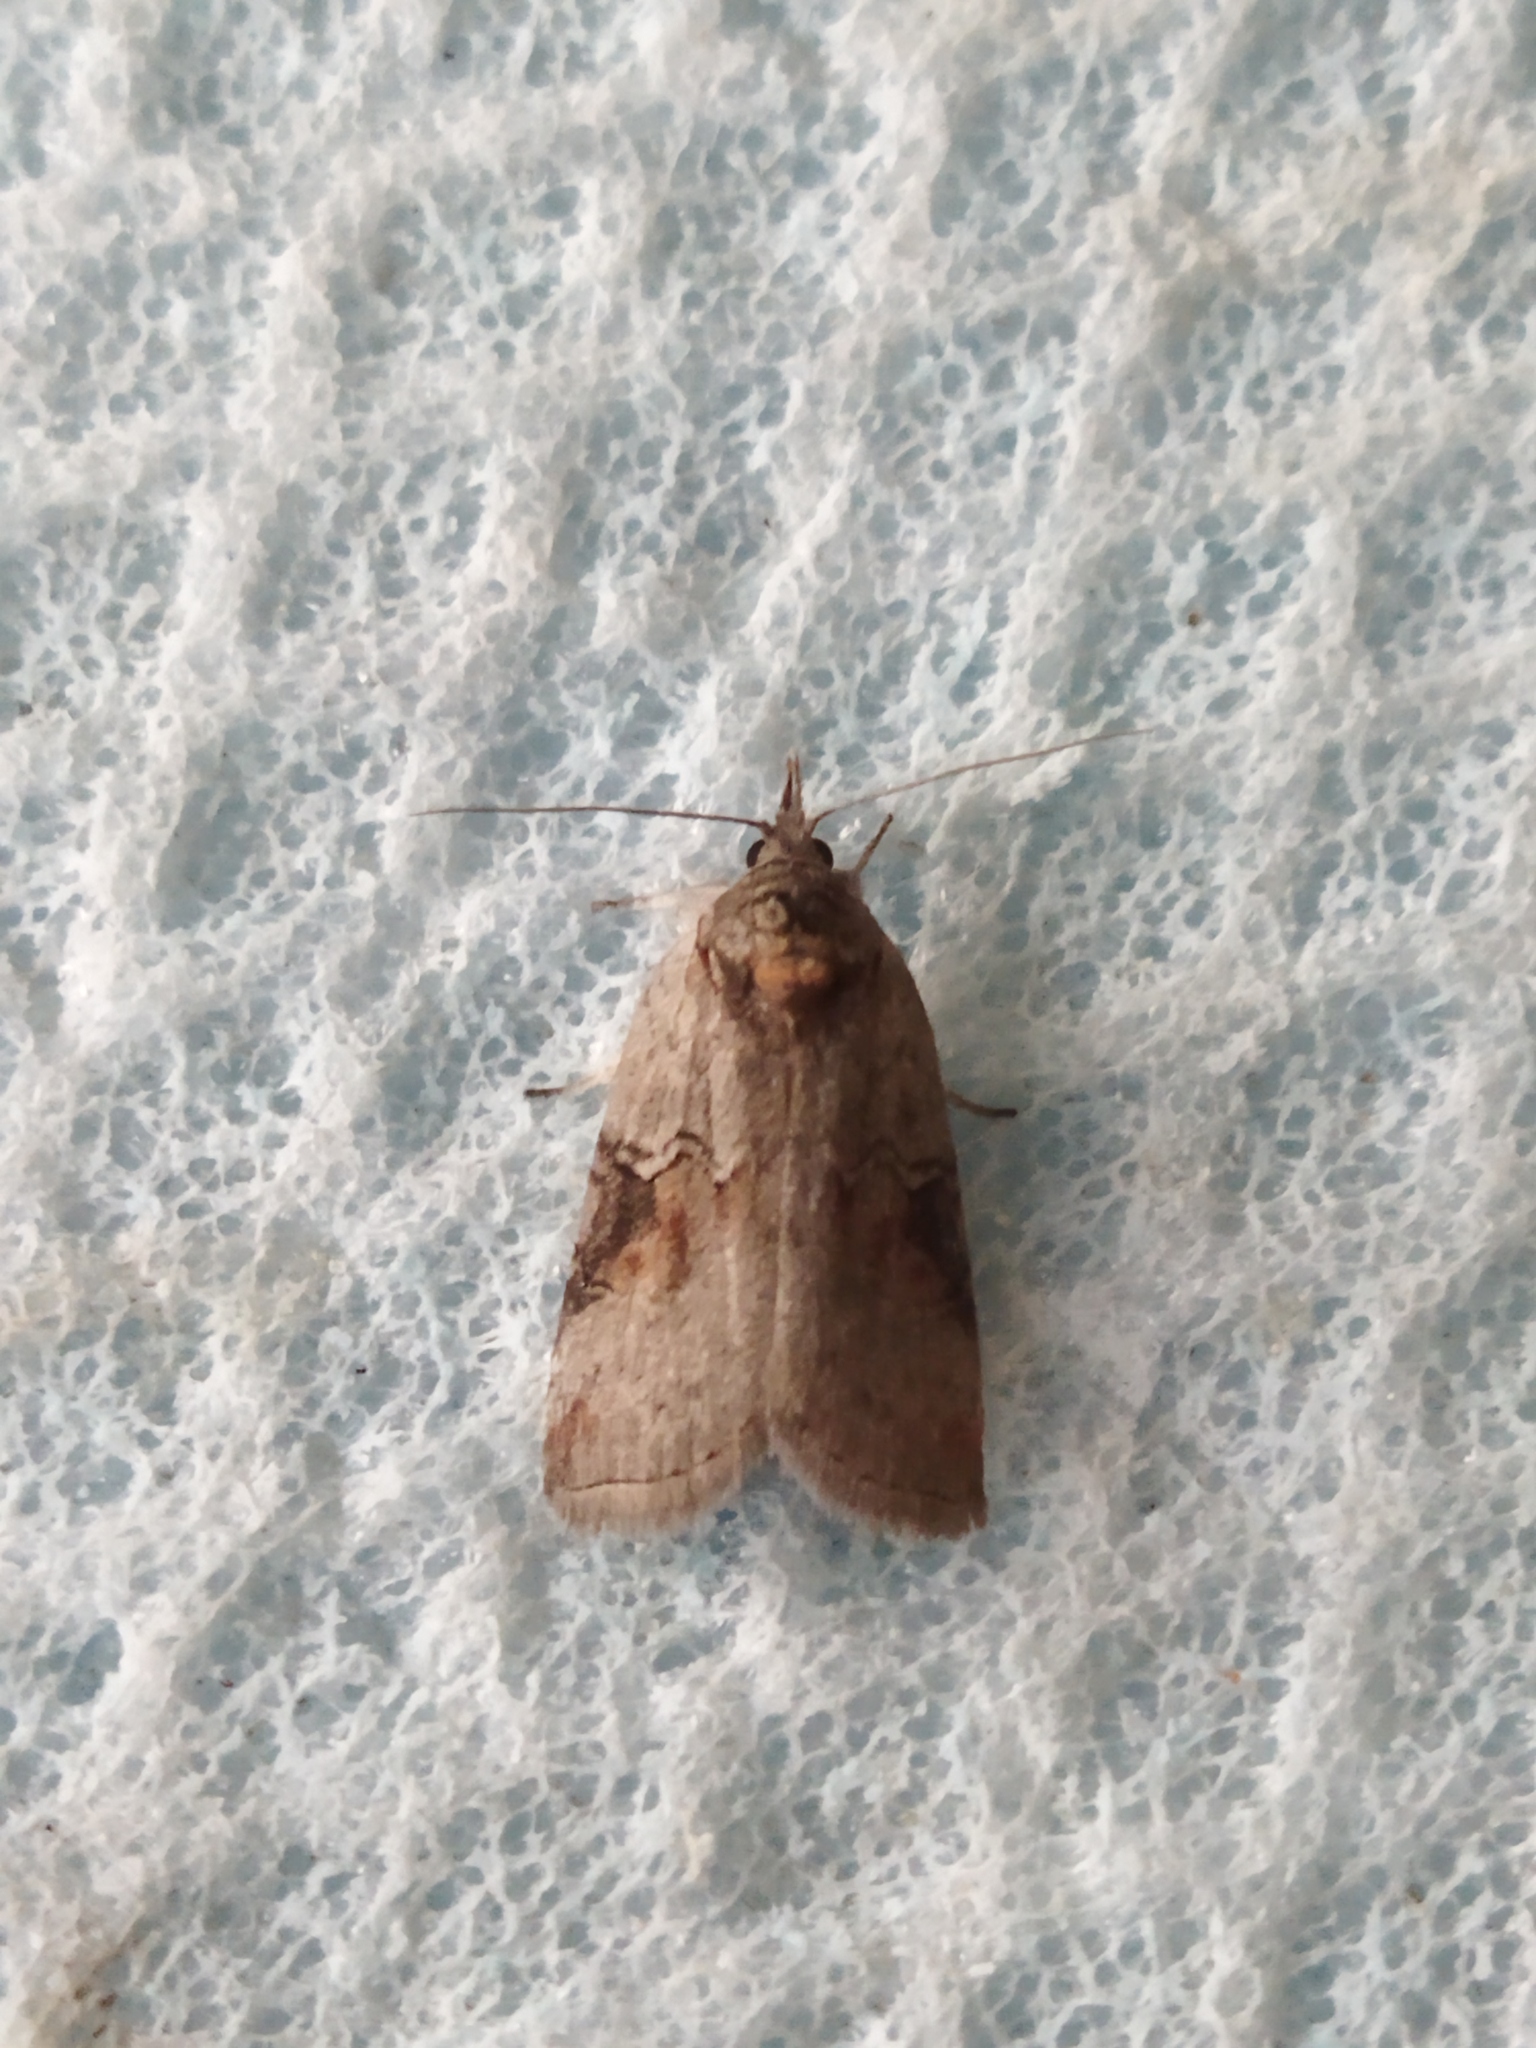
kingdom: Animalia
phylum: Arthropoda
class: Insecta
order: Lepidoptera
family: Nolidae
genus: Nycteola
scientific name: Nycteola asiatica
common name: Eastern nycteoline
